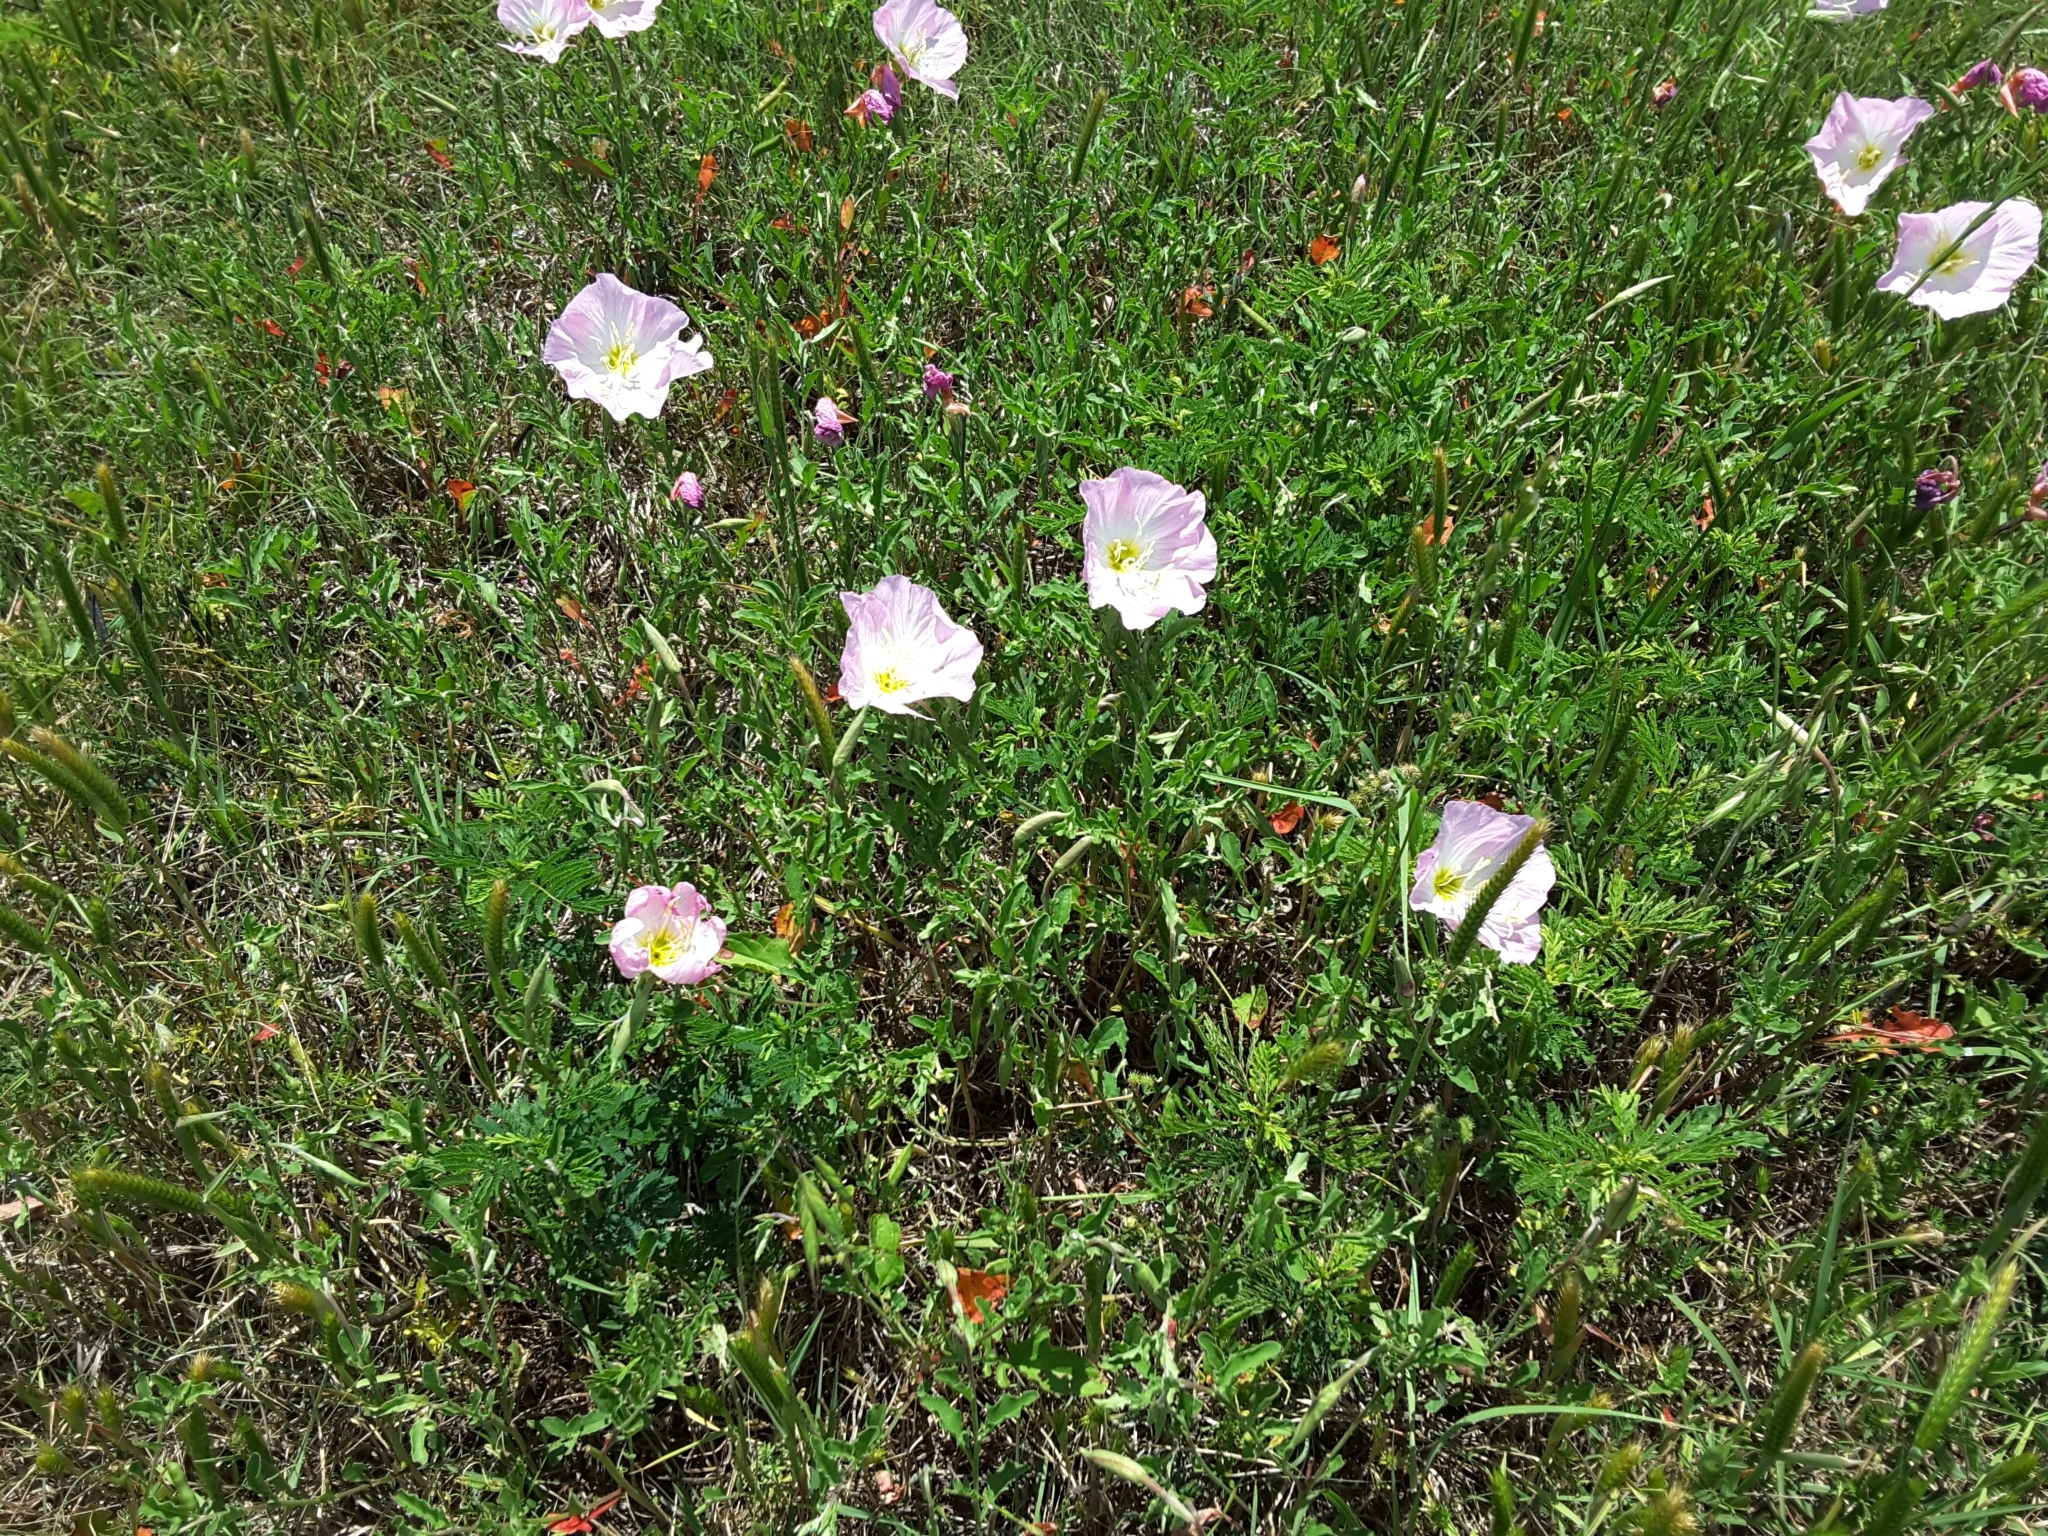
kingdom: Plantae
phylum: Tracheophyta
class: Magnoliopsida
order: Myrtales
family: Onagraceae
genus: Oenothera
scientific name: Oenothera speciosa
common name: White evening-primrose
